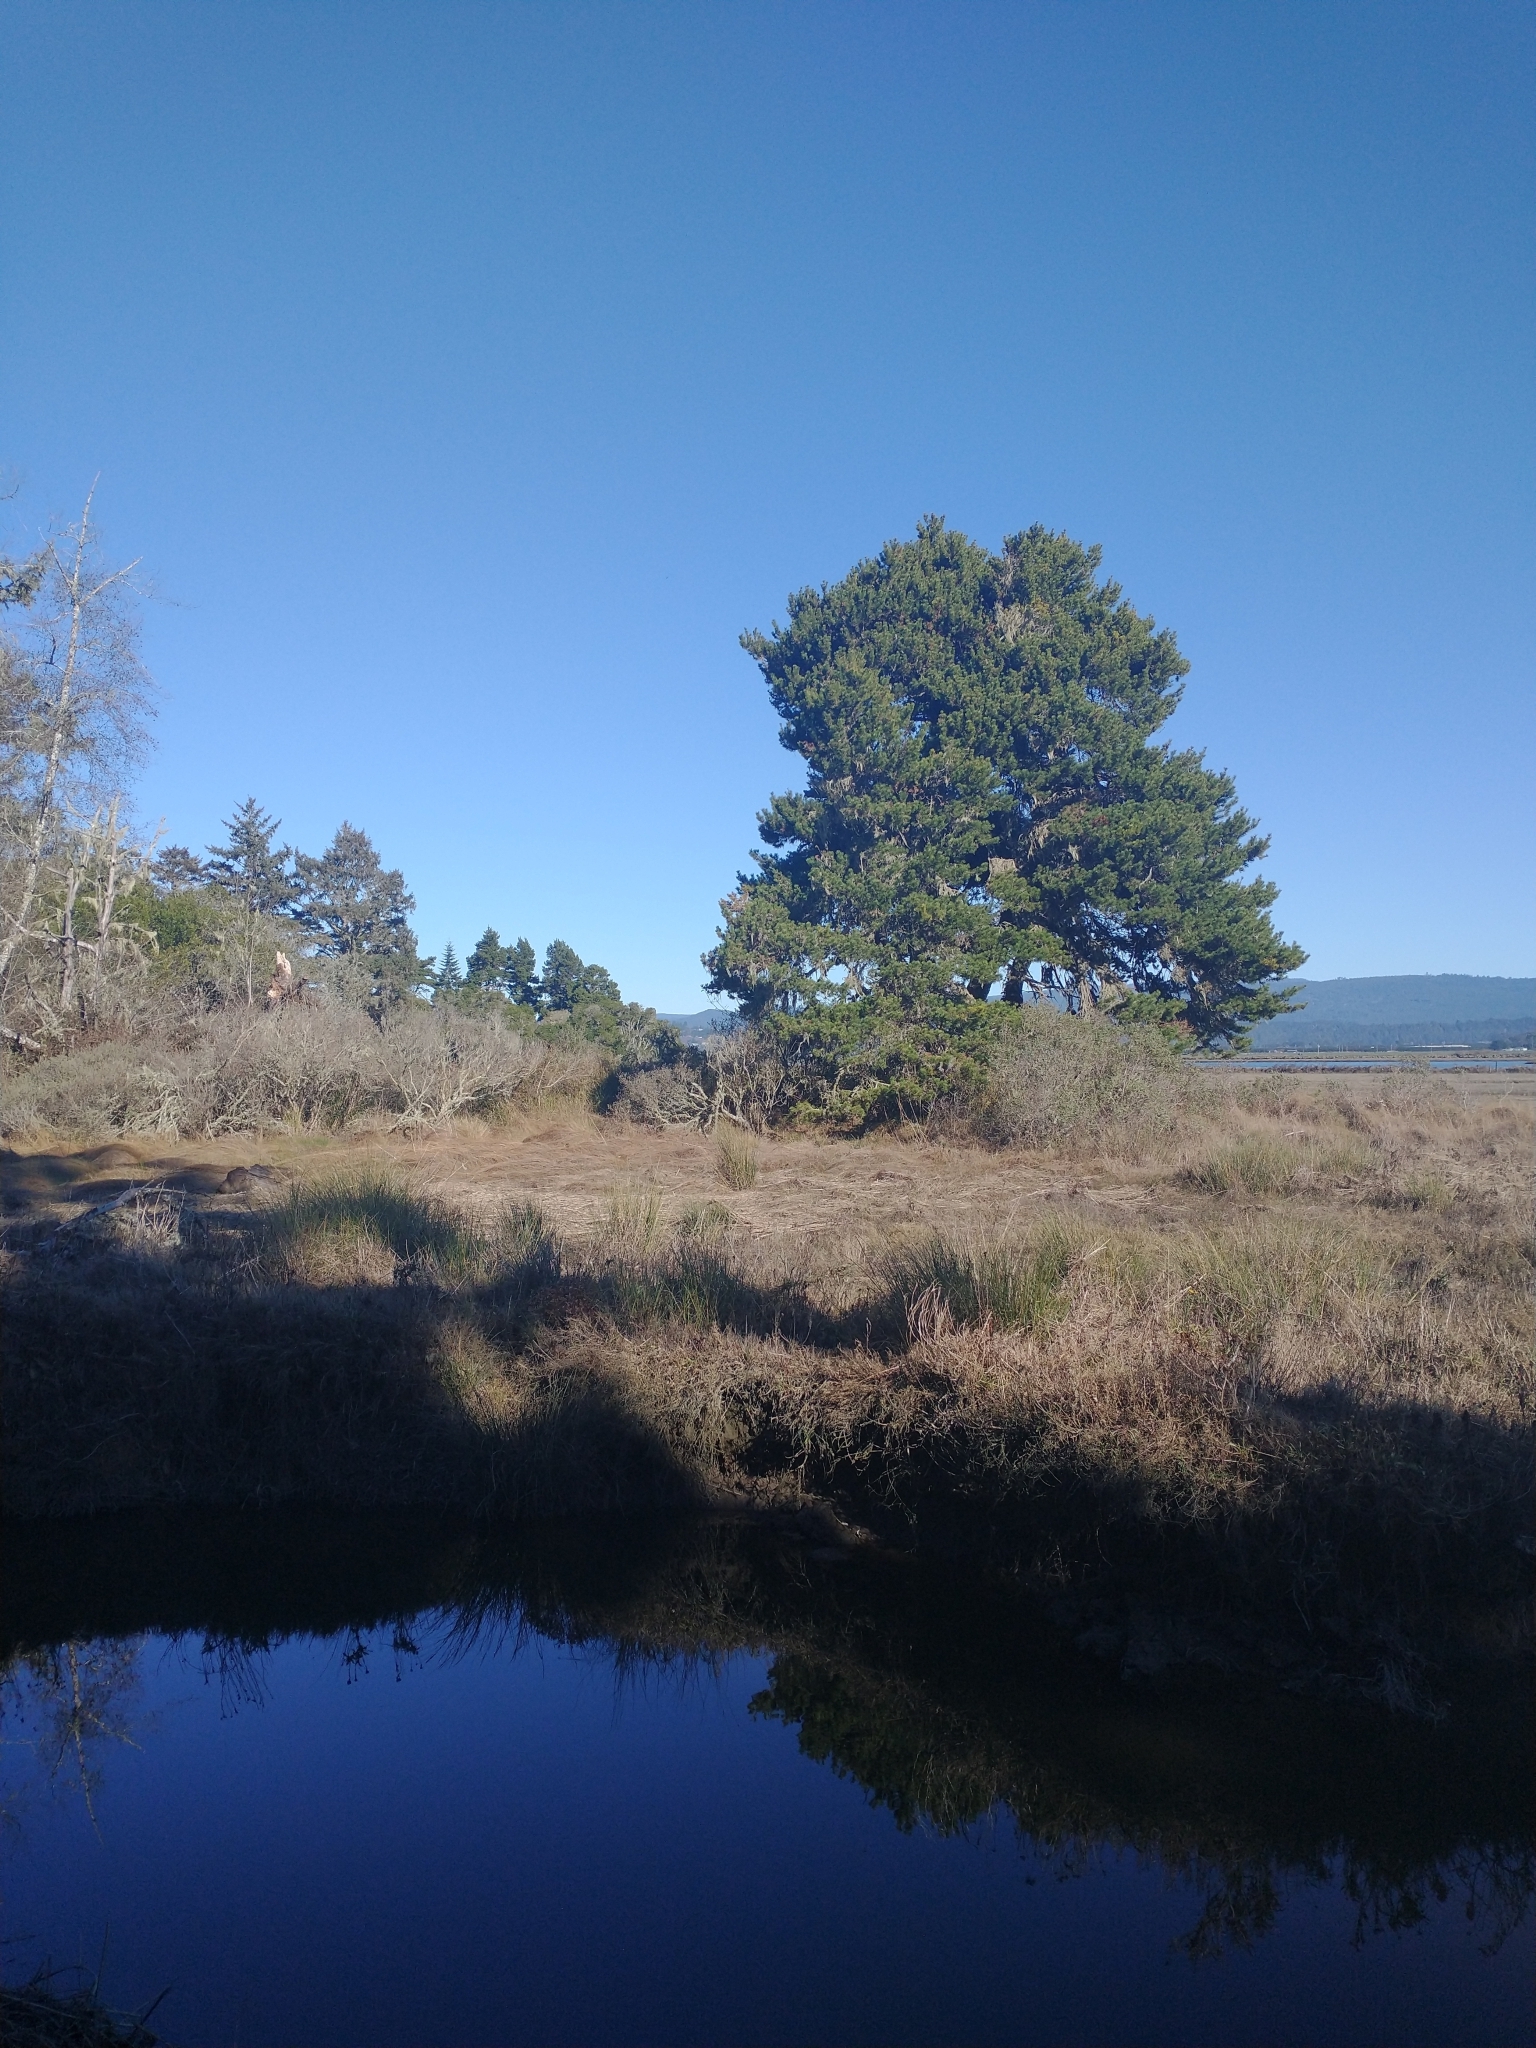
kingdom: Plantae
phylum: Tracheophyta
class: Pinopsida
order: Pinales
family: Pinaceae
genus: Pinus
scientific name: Pinus contorta
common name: Lodgepole pine
